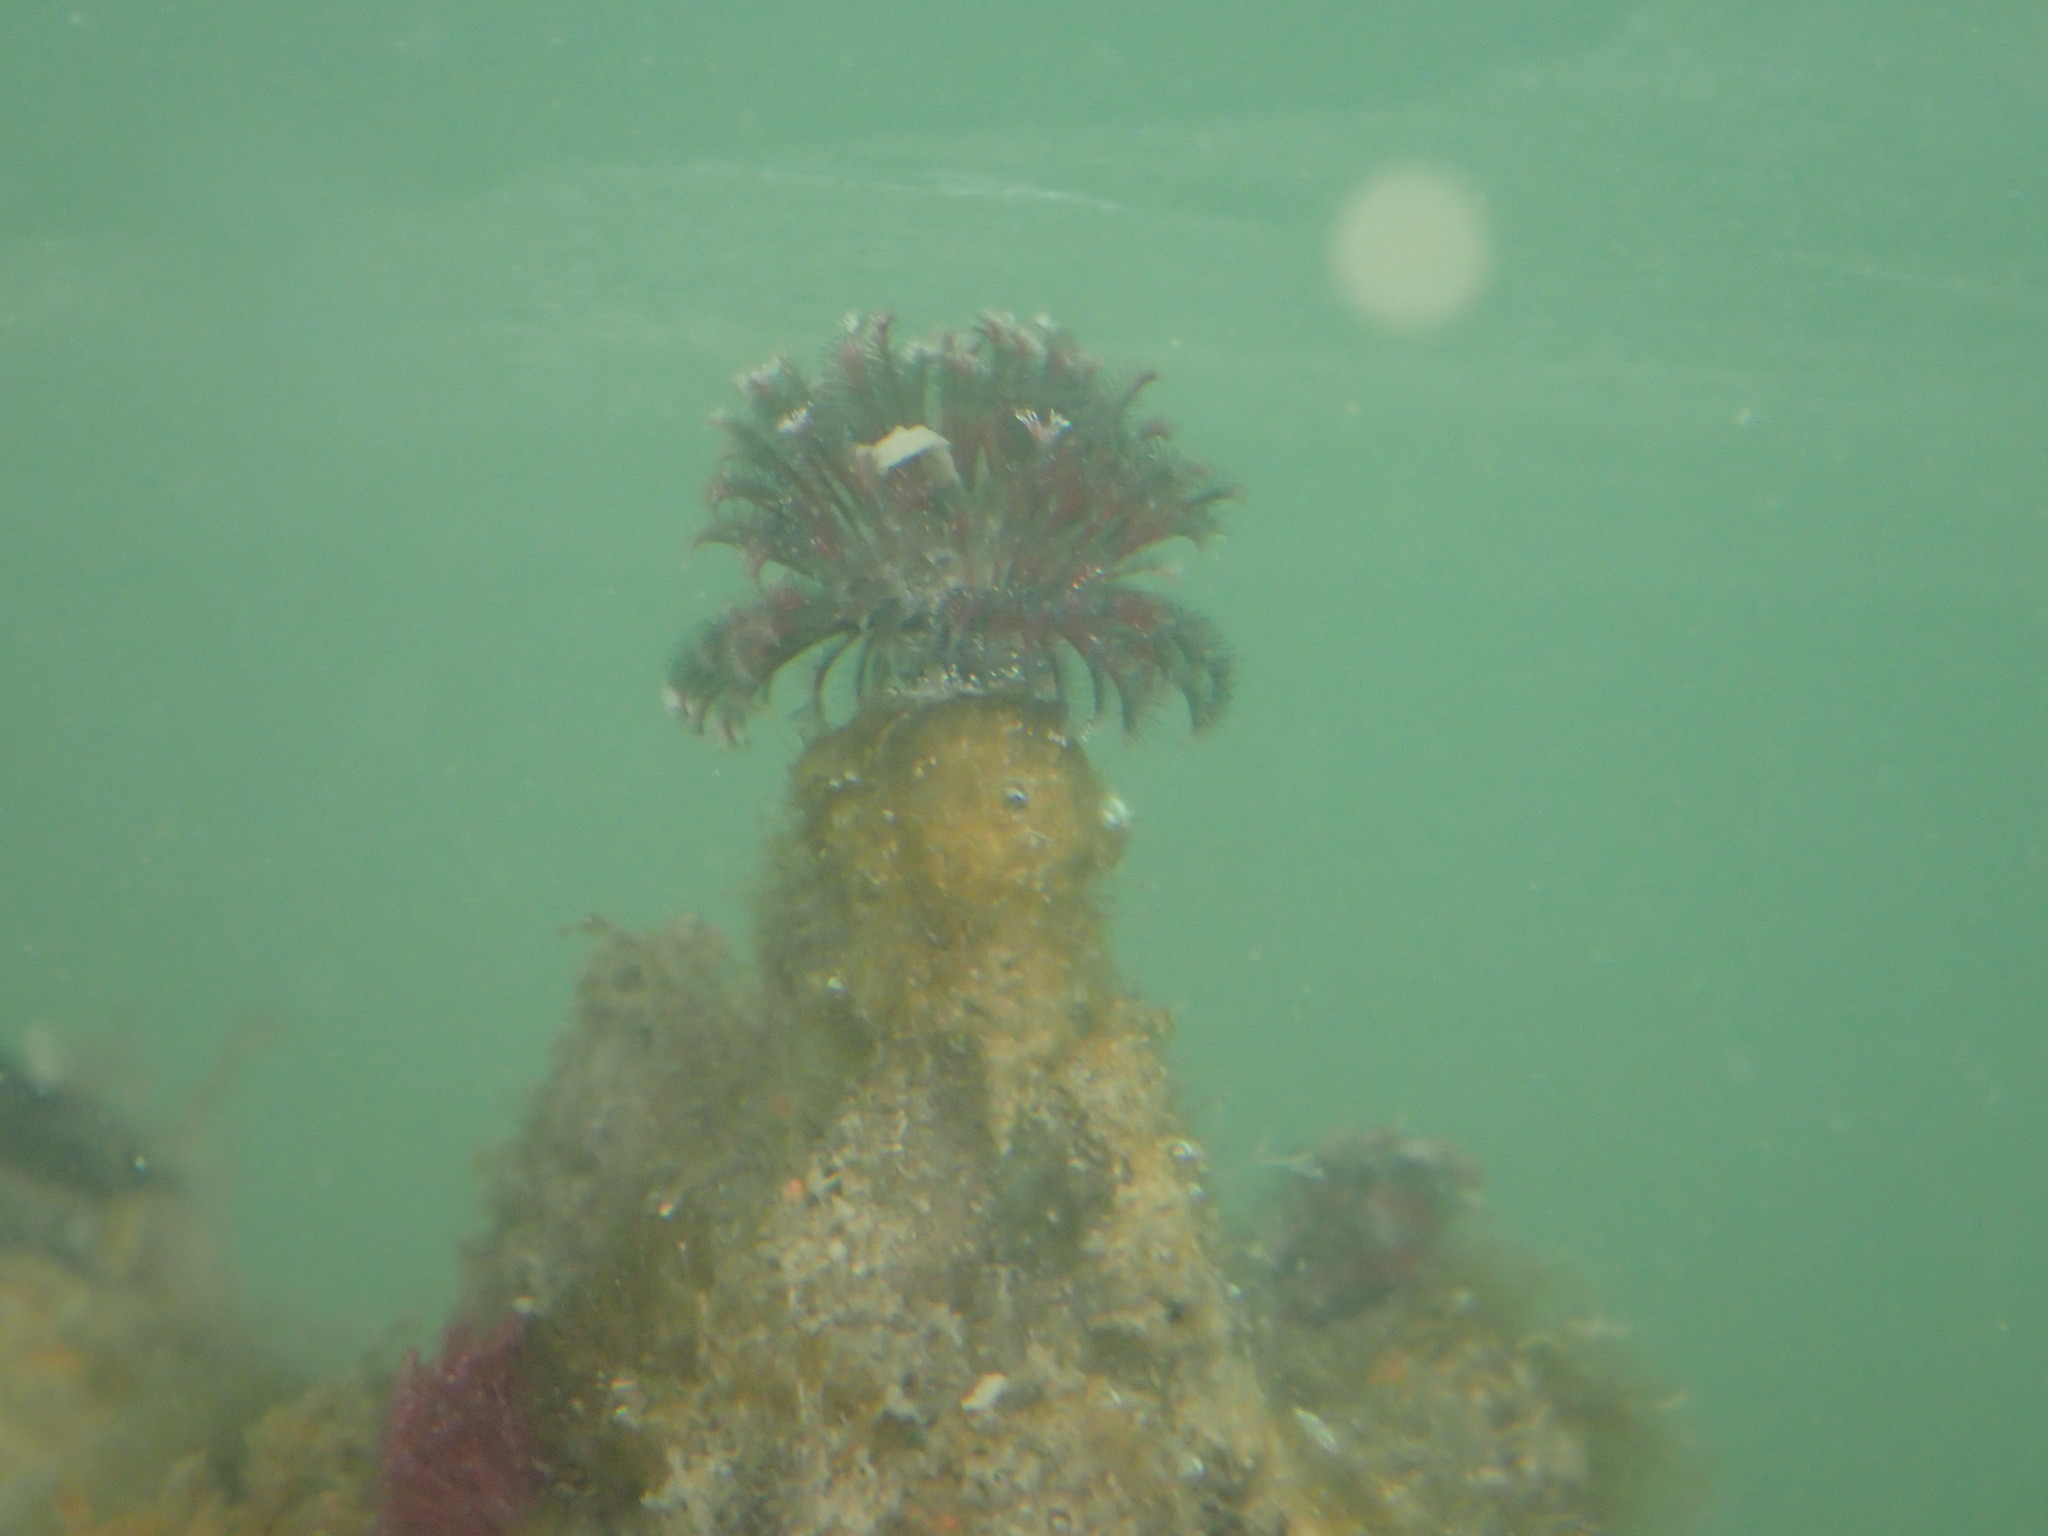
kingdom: Animalia
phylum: Annelida
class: Polychaeta
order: Sabellida
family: Sabellidae
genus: Eudistylia
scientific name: Eudistylia vancouveri
